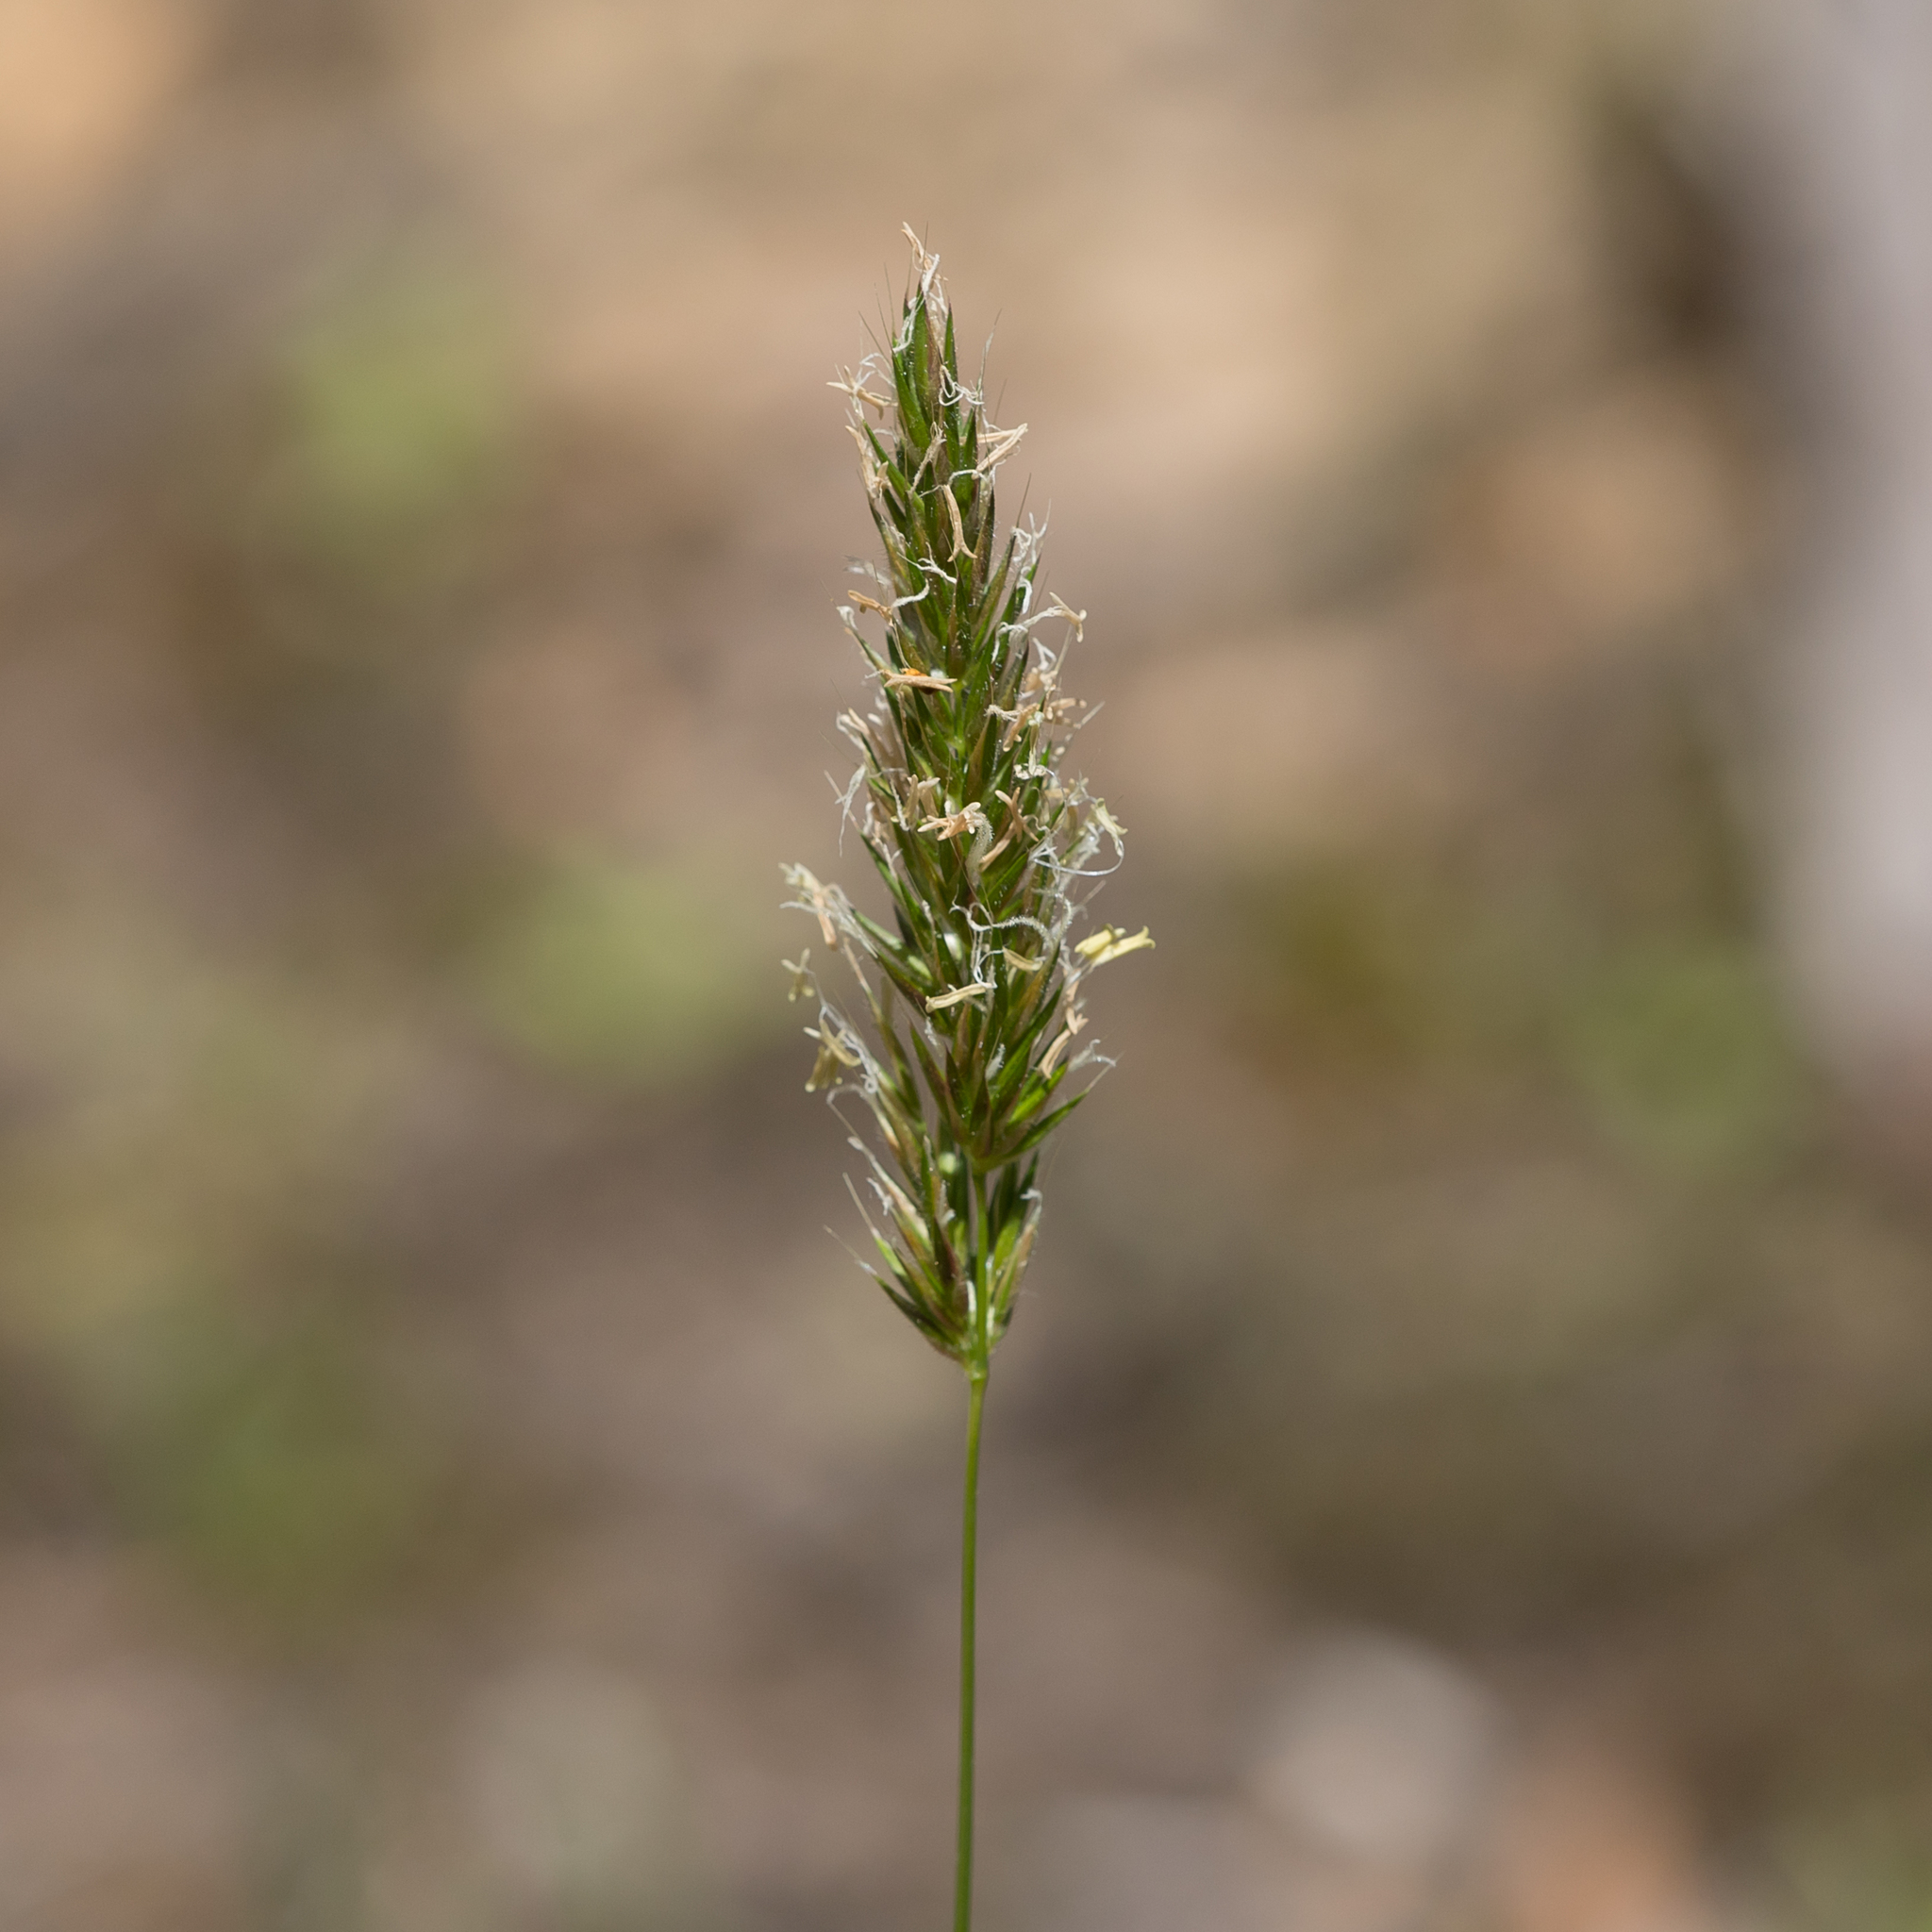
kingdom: Plantae
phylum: Tracheophyta
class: Liliopsida
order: Poales
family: Poaceae
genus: Anthoxanthum
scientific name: Anthoxanthum odoratum
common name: Sweet vernalgrass
